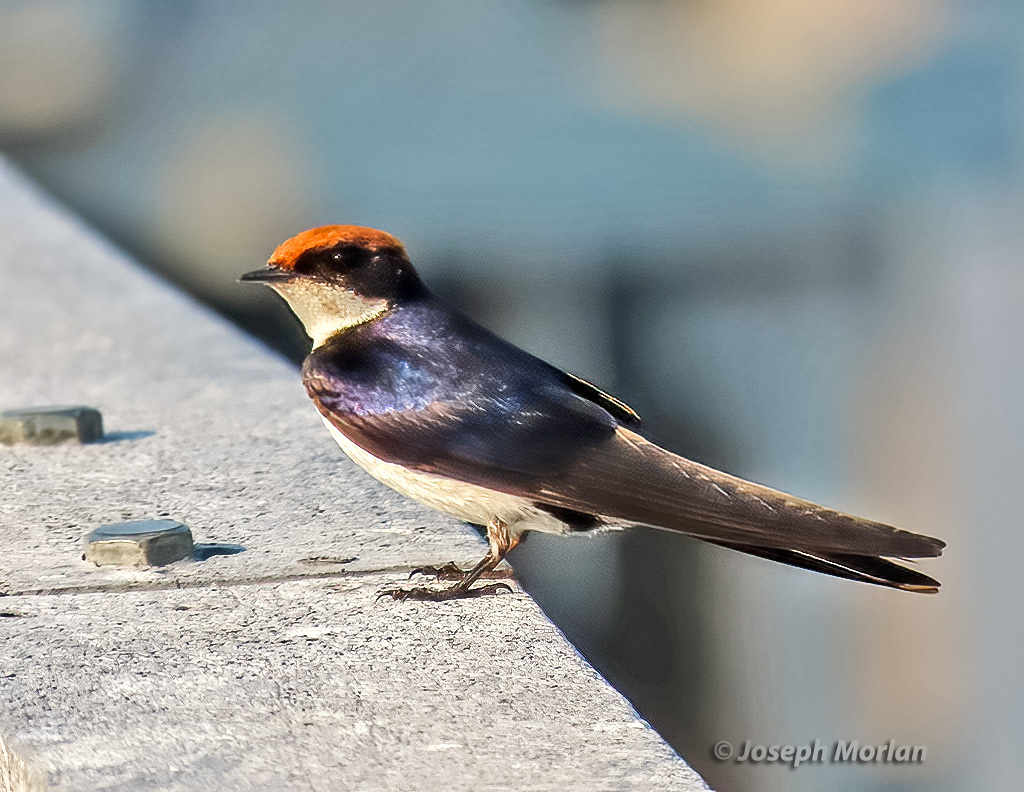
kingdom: Animalia
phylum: Chordata
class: Aves
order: Passeriformes
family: Hirundinidae
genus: Hirundo
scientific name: Hirundo smithii
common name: Wire-tailed swallow
